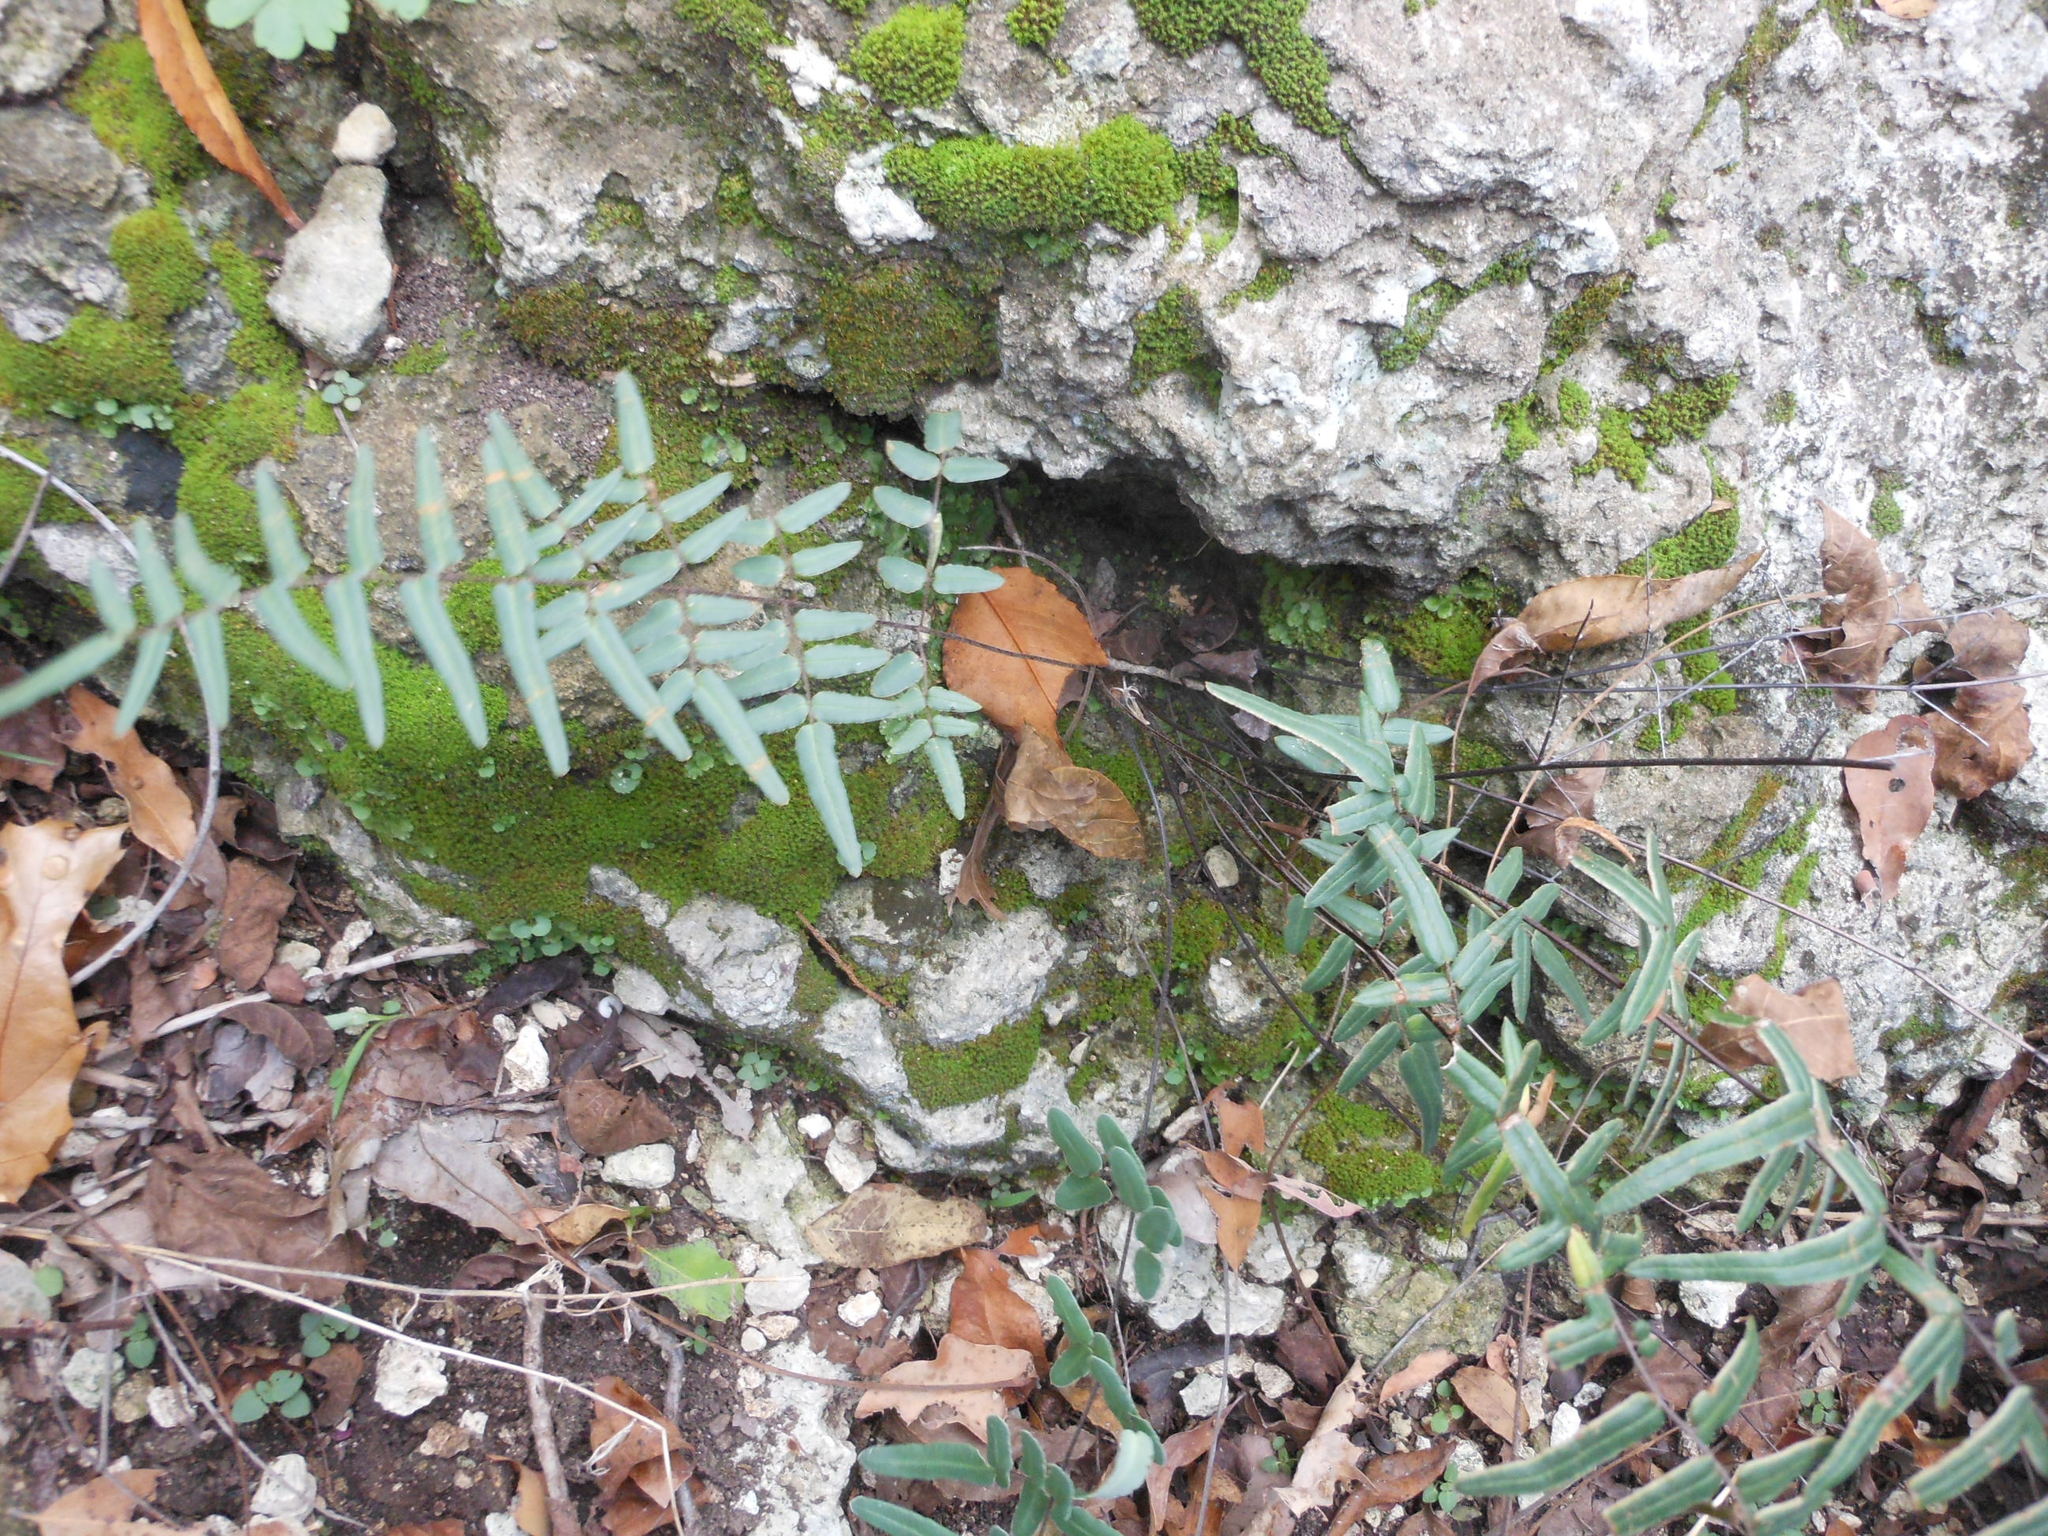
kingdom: Plantae
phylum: Tracheophyta
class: Polypodiopsida
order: Polypodiales
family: Pteridaceae
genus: Pellaea
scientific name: Pellaea atropurpurea
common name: Hairy cliffbrake
